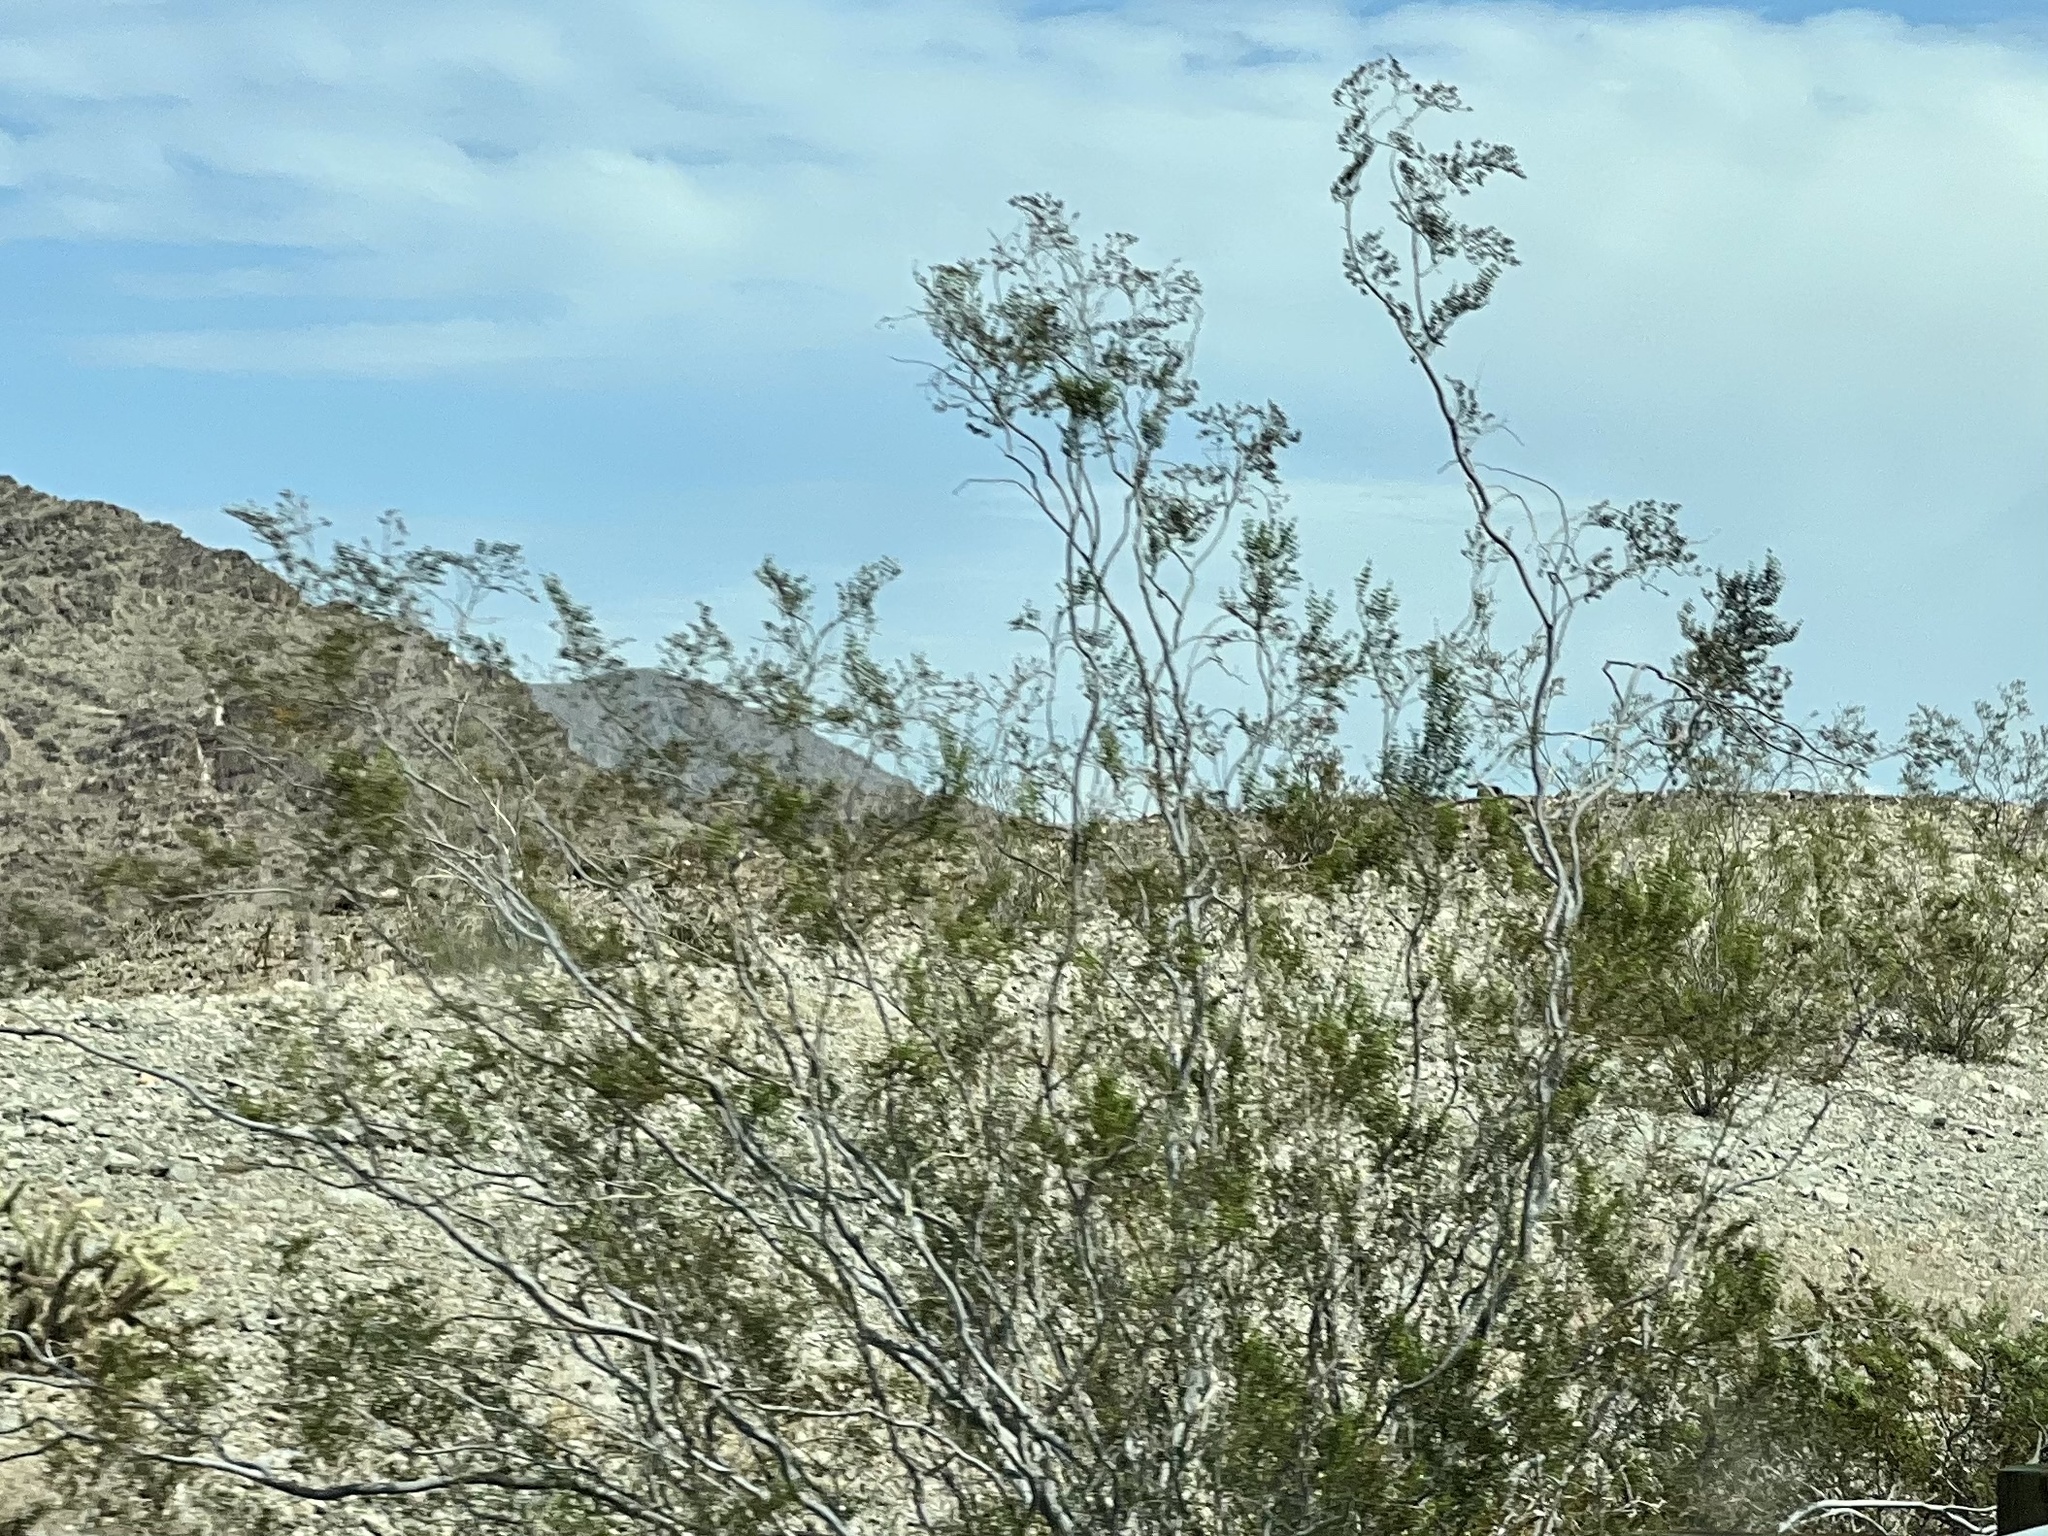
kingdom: Plantae
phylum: Tracheophyta
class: Magnoliopsida
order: Zygophyllales
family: Zygophyllaceae
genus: Larrea
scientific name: Larrea tridentata
